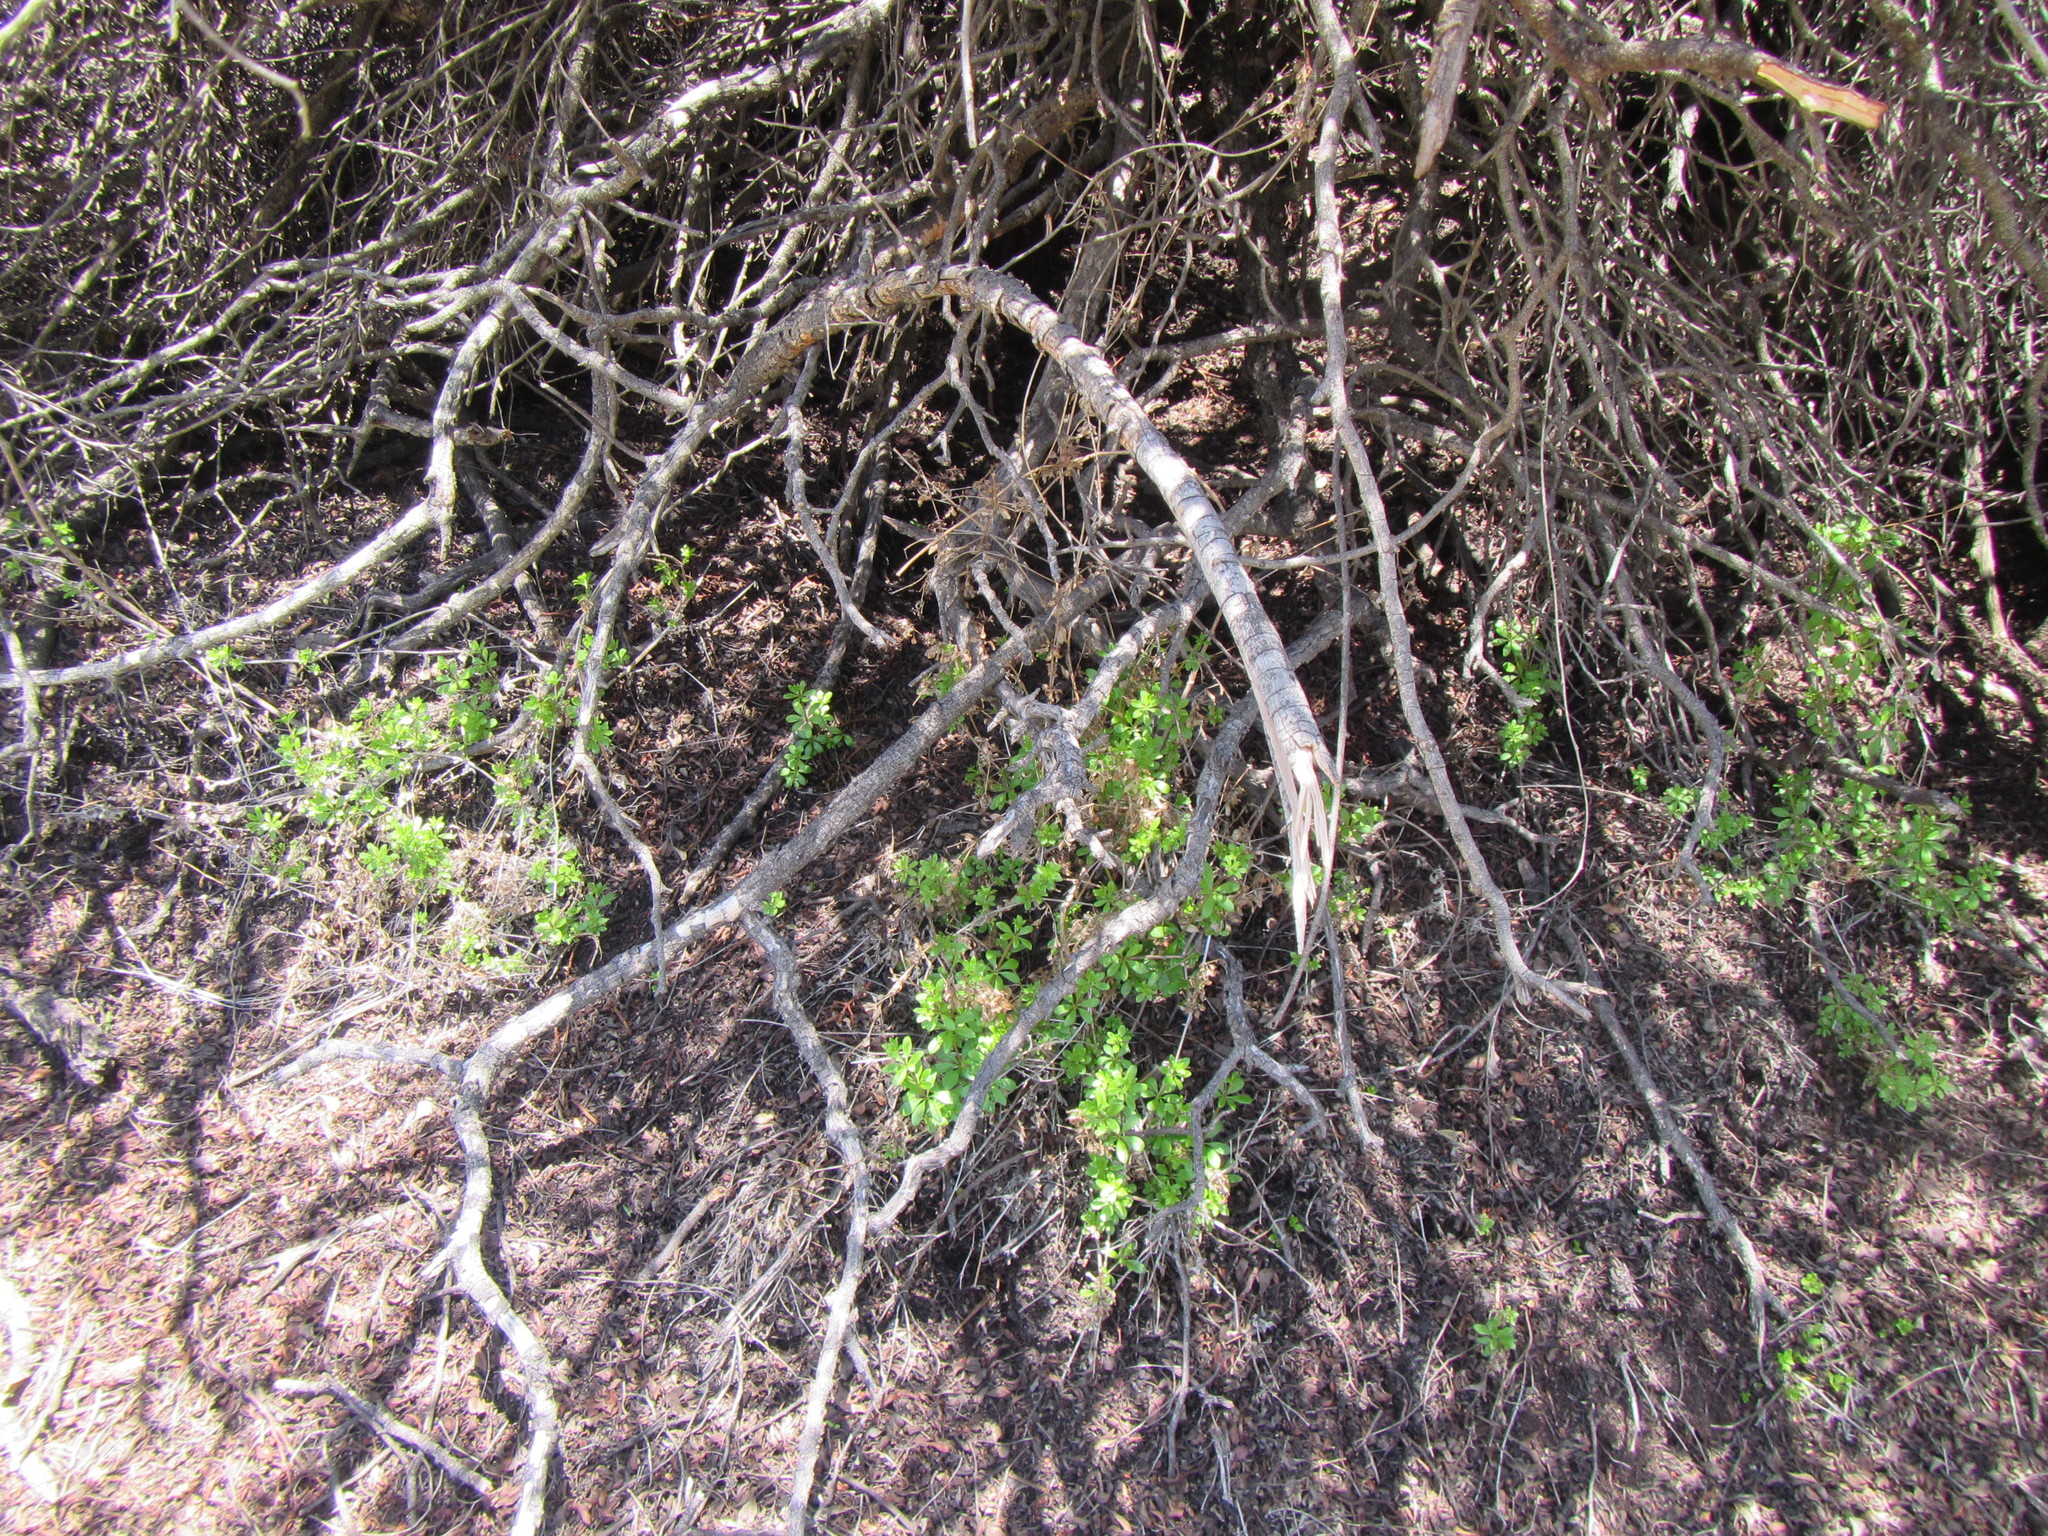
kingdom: Plantae
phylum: Tracheophyta
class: Magnoliopsida
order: Gentianales
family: Rubiaceae
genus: Galium
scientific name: Galium tomentosum
